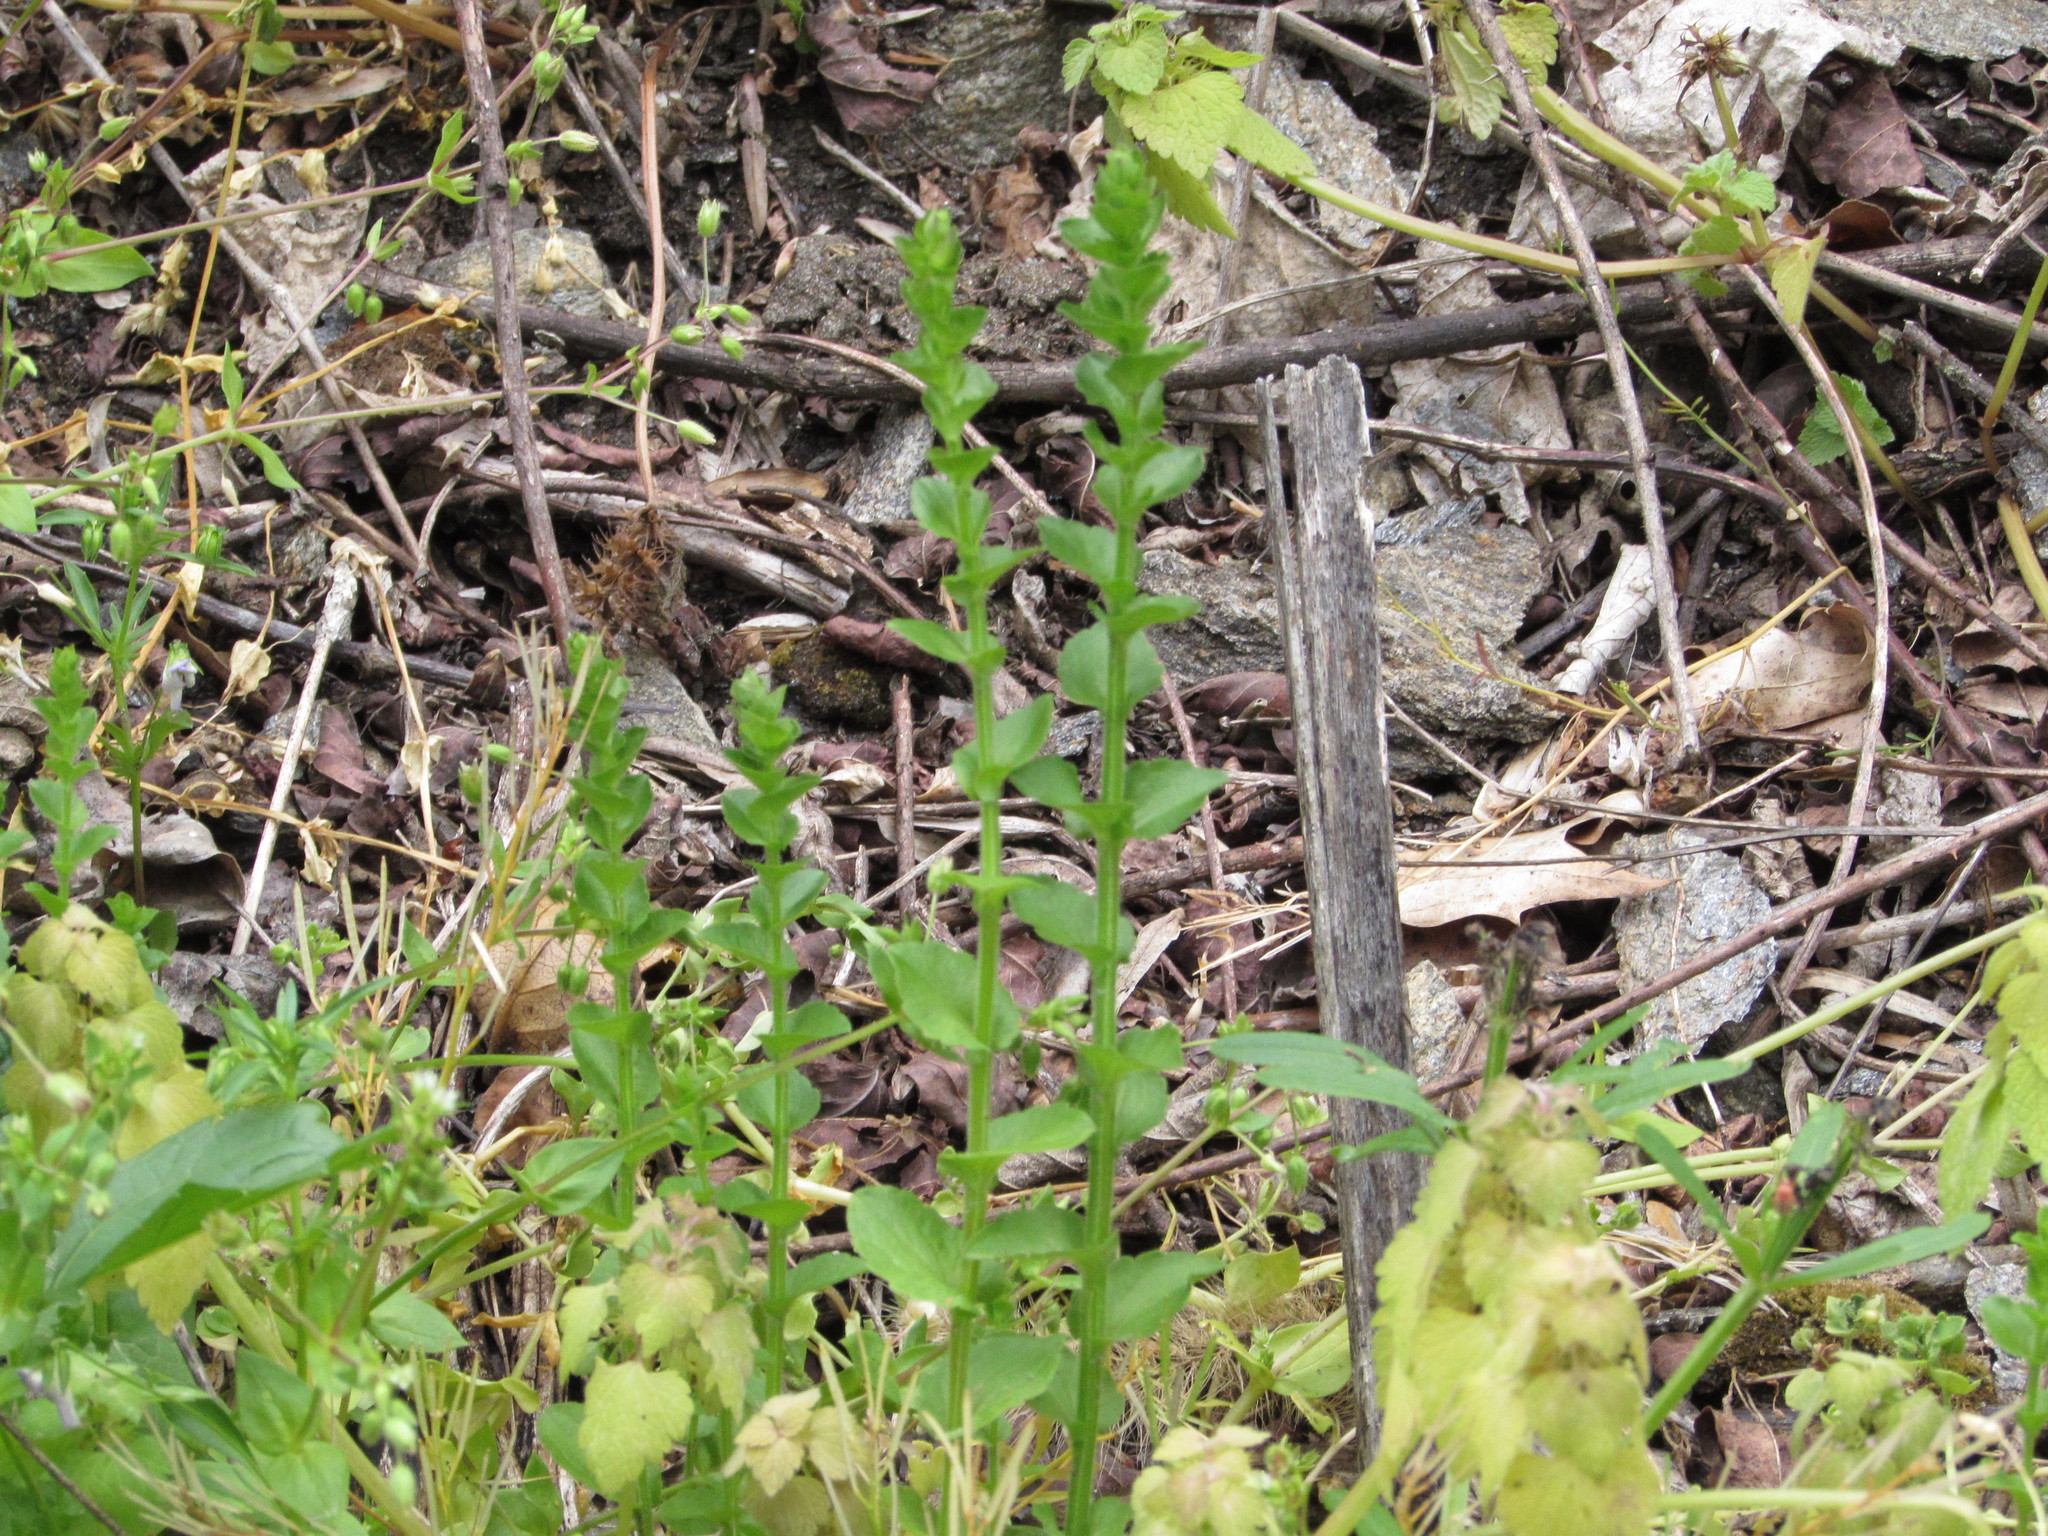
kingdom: Plantae
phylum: Tracheophyta
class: Magnoliopsida
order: Asterales
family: Campanulaceae
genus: Triodanis
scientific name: Triodanis perfoliata
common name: Clasping venus' looking-glass
